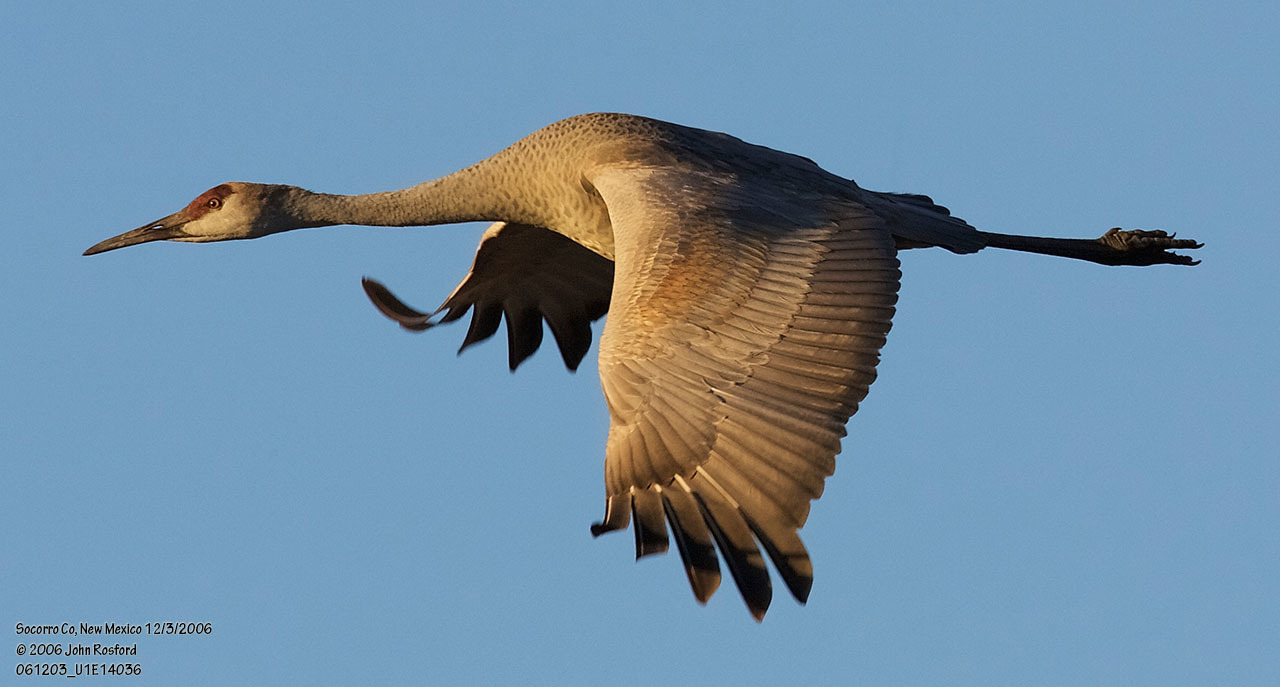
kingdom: Animalia
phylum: Chordata
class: Aves
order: Gruiformes
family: Gruidae
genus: Grus
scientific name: Grus canadensis
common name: Sandhill crane
